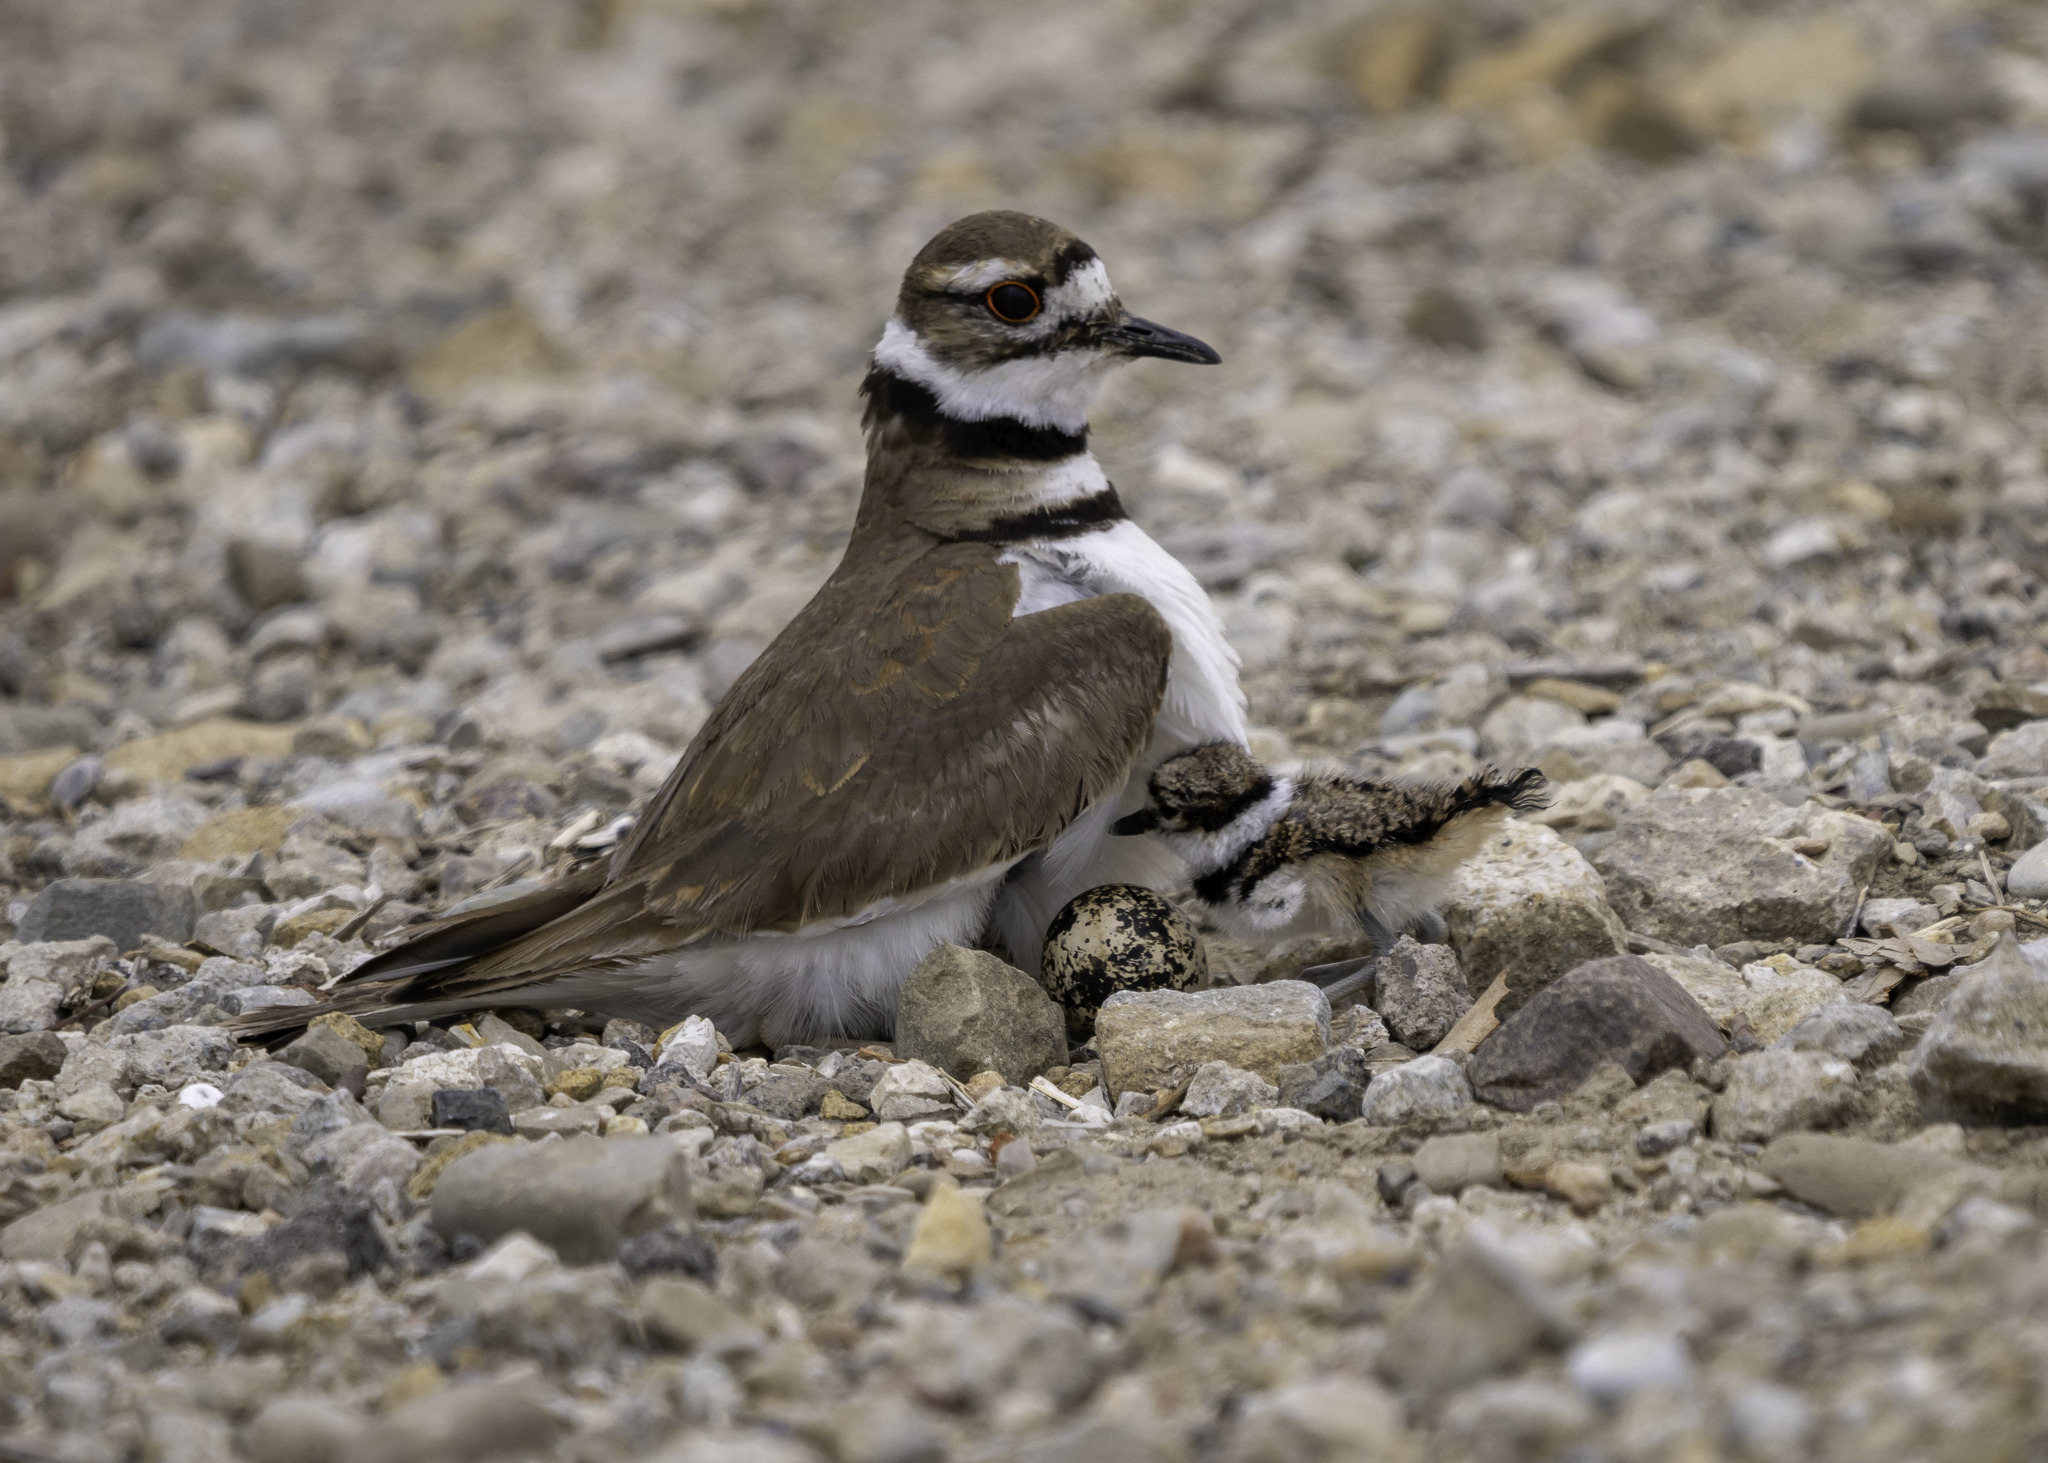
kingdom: Animalia
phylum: Chordata
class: Aves
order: Charadriiformes
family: Charadriidae
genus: Charadrius
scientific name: Charadrius vociferus
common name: Killdeer
